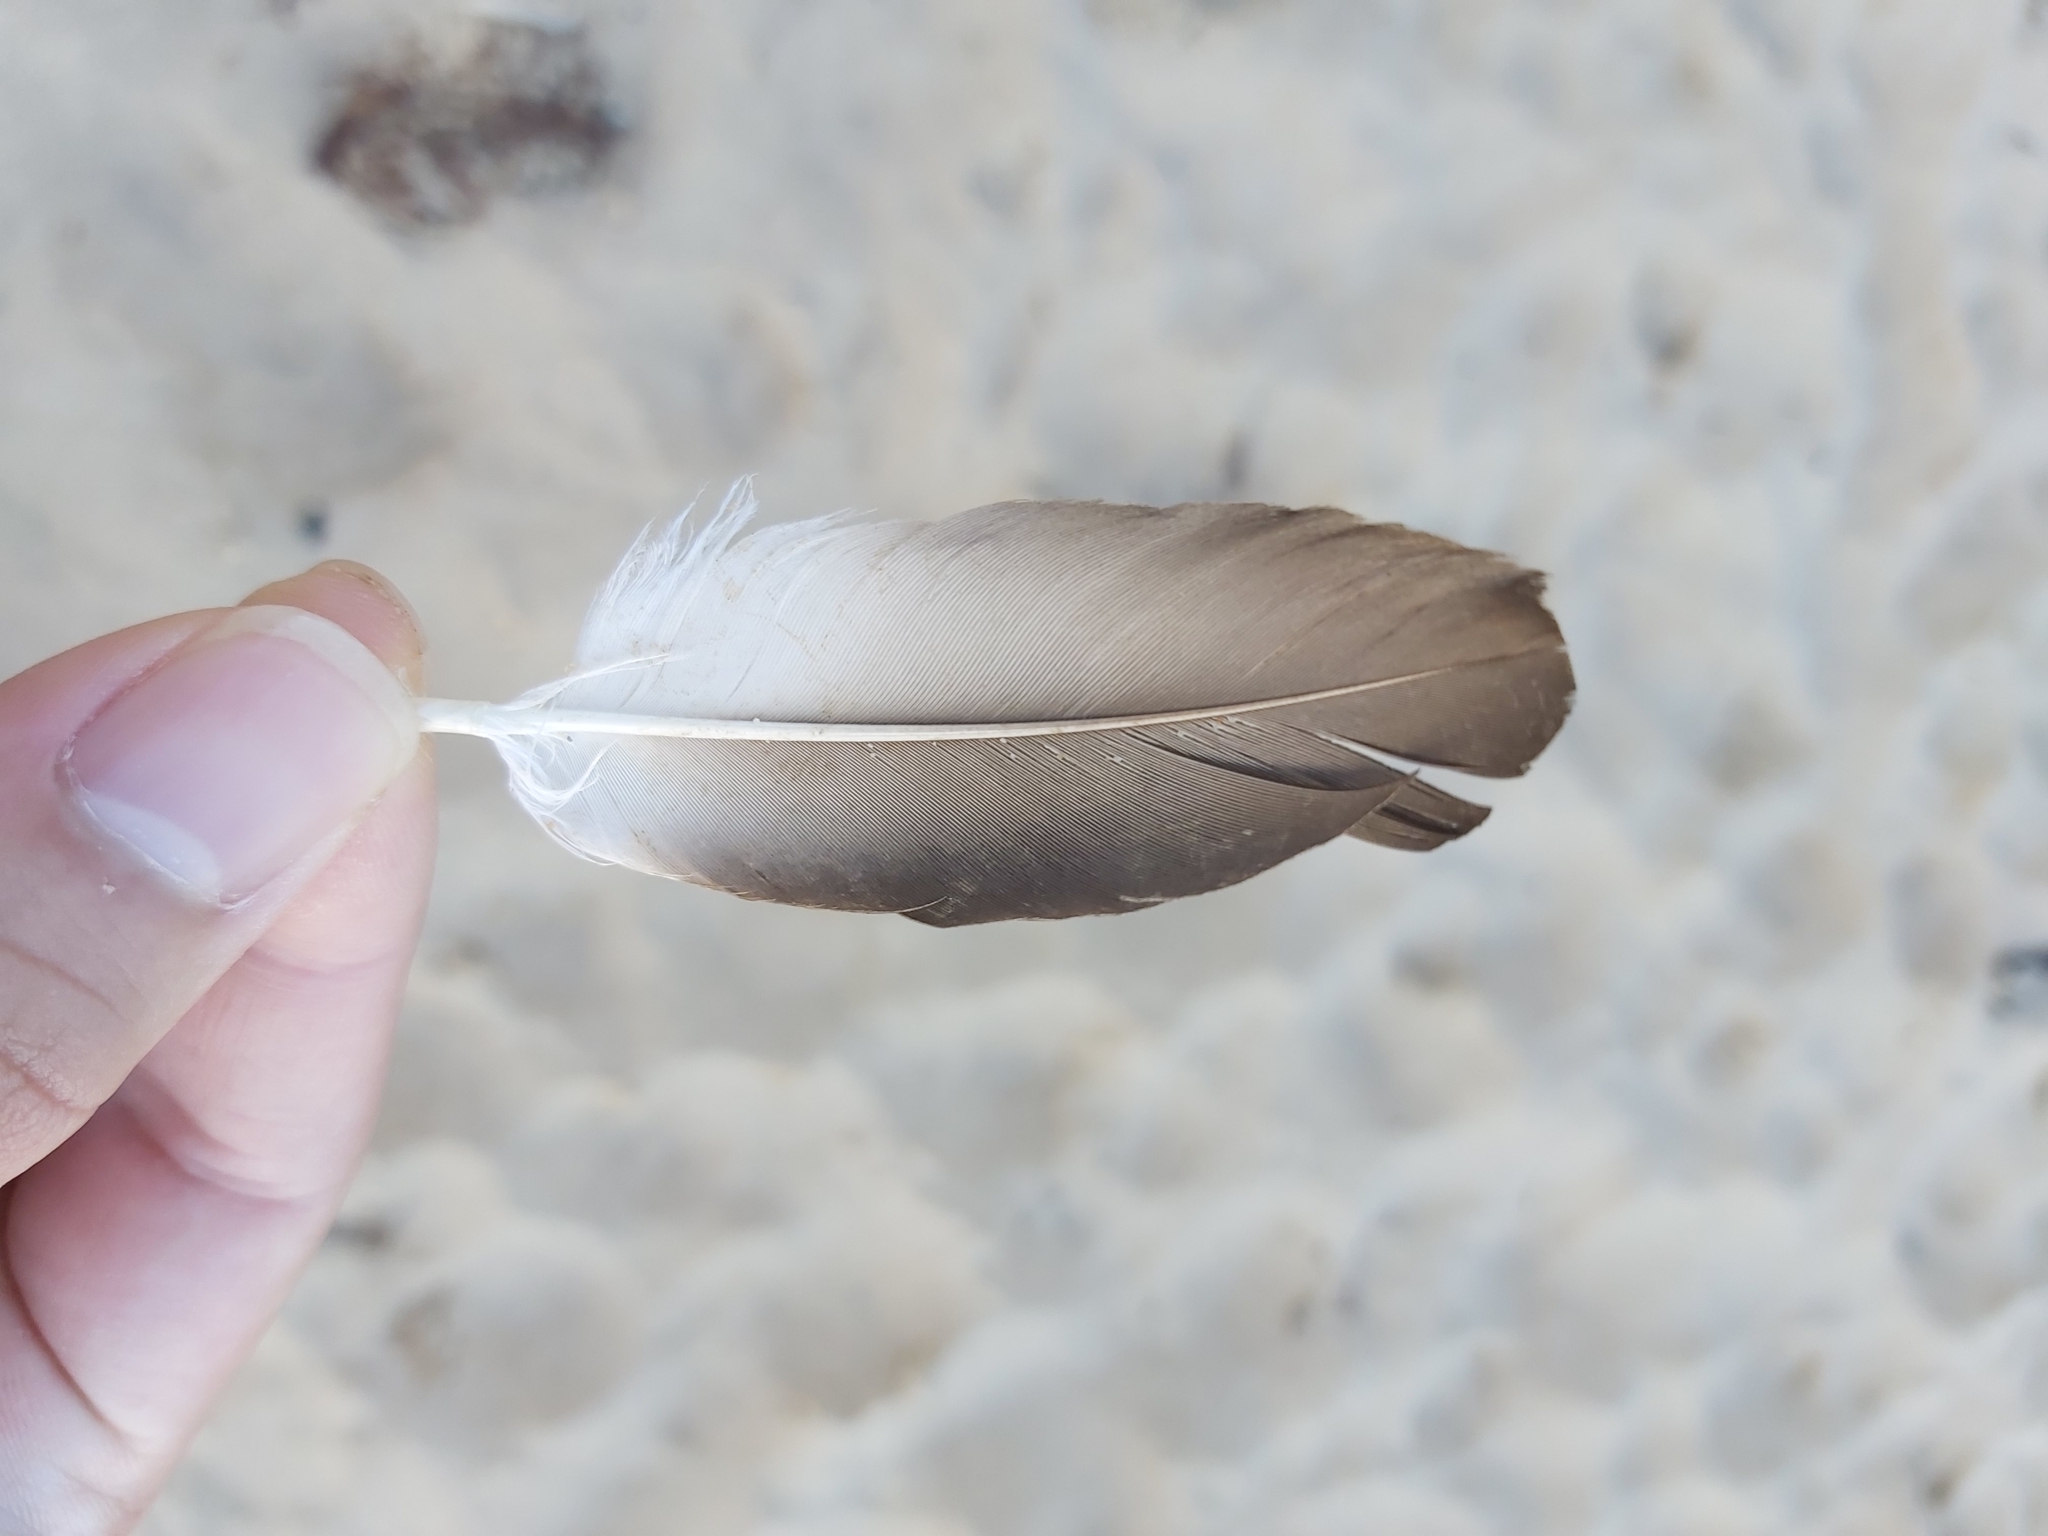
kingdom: Animalia
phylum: Chordata
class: Aves
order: Suliformes
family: Sulidae
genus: Morus
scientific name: Morus serrator
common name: Australasian gannet
